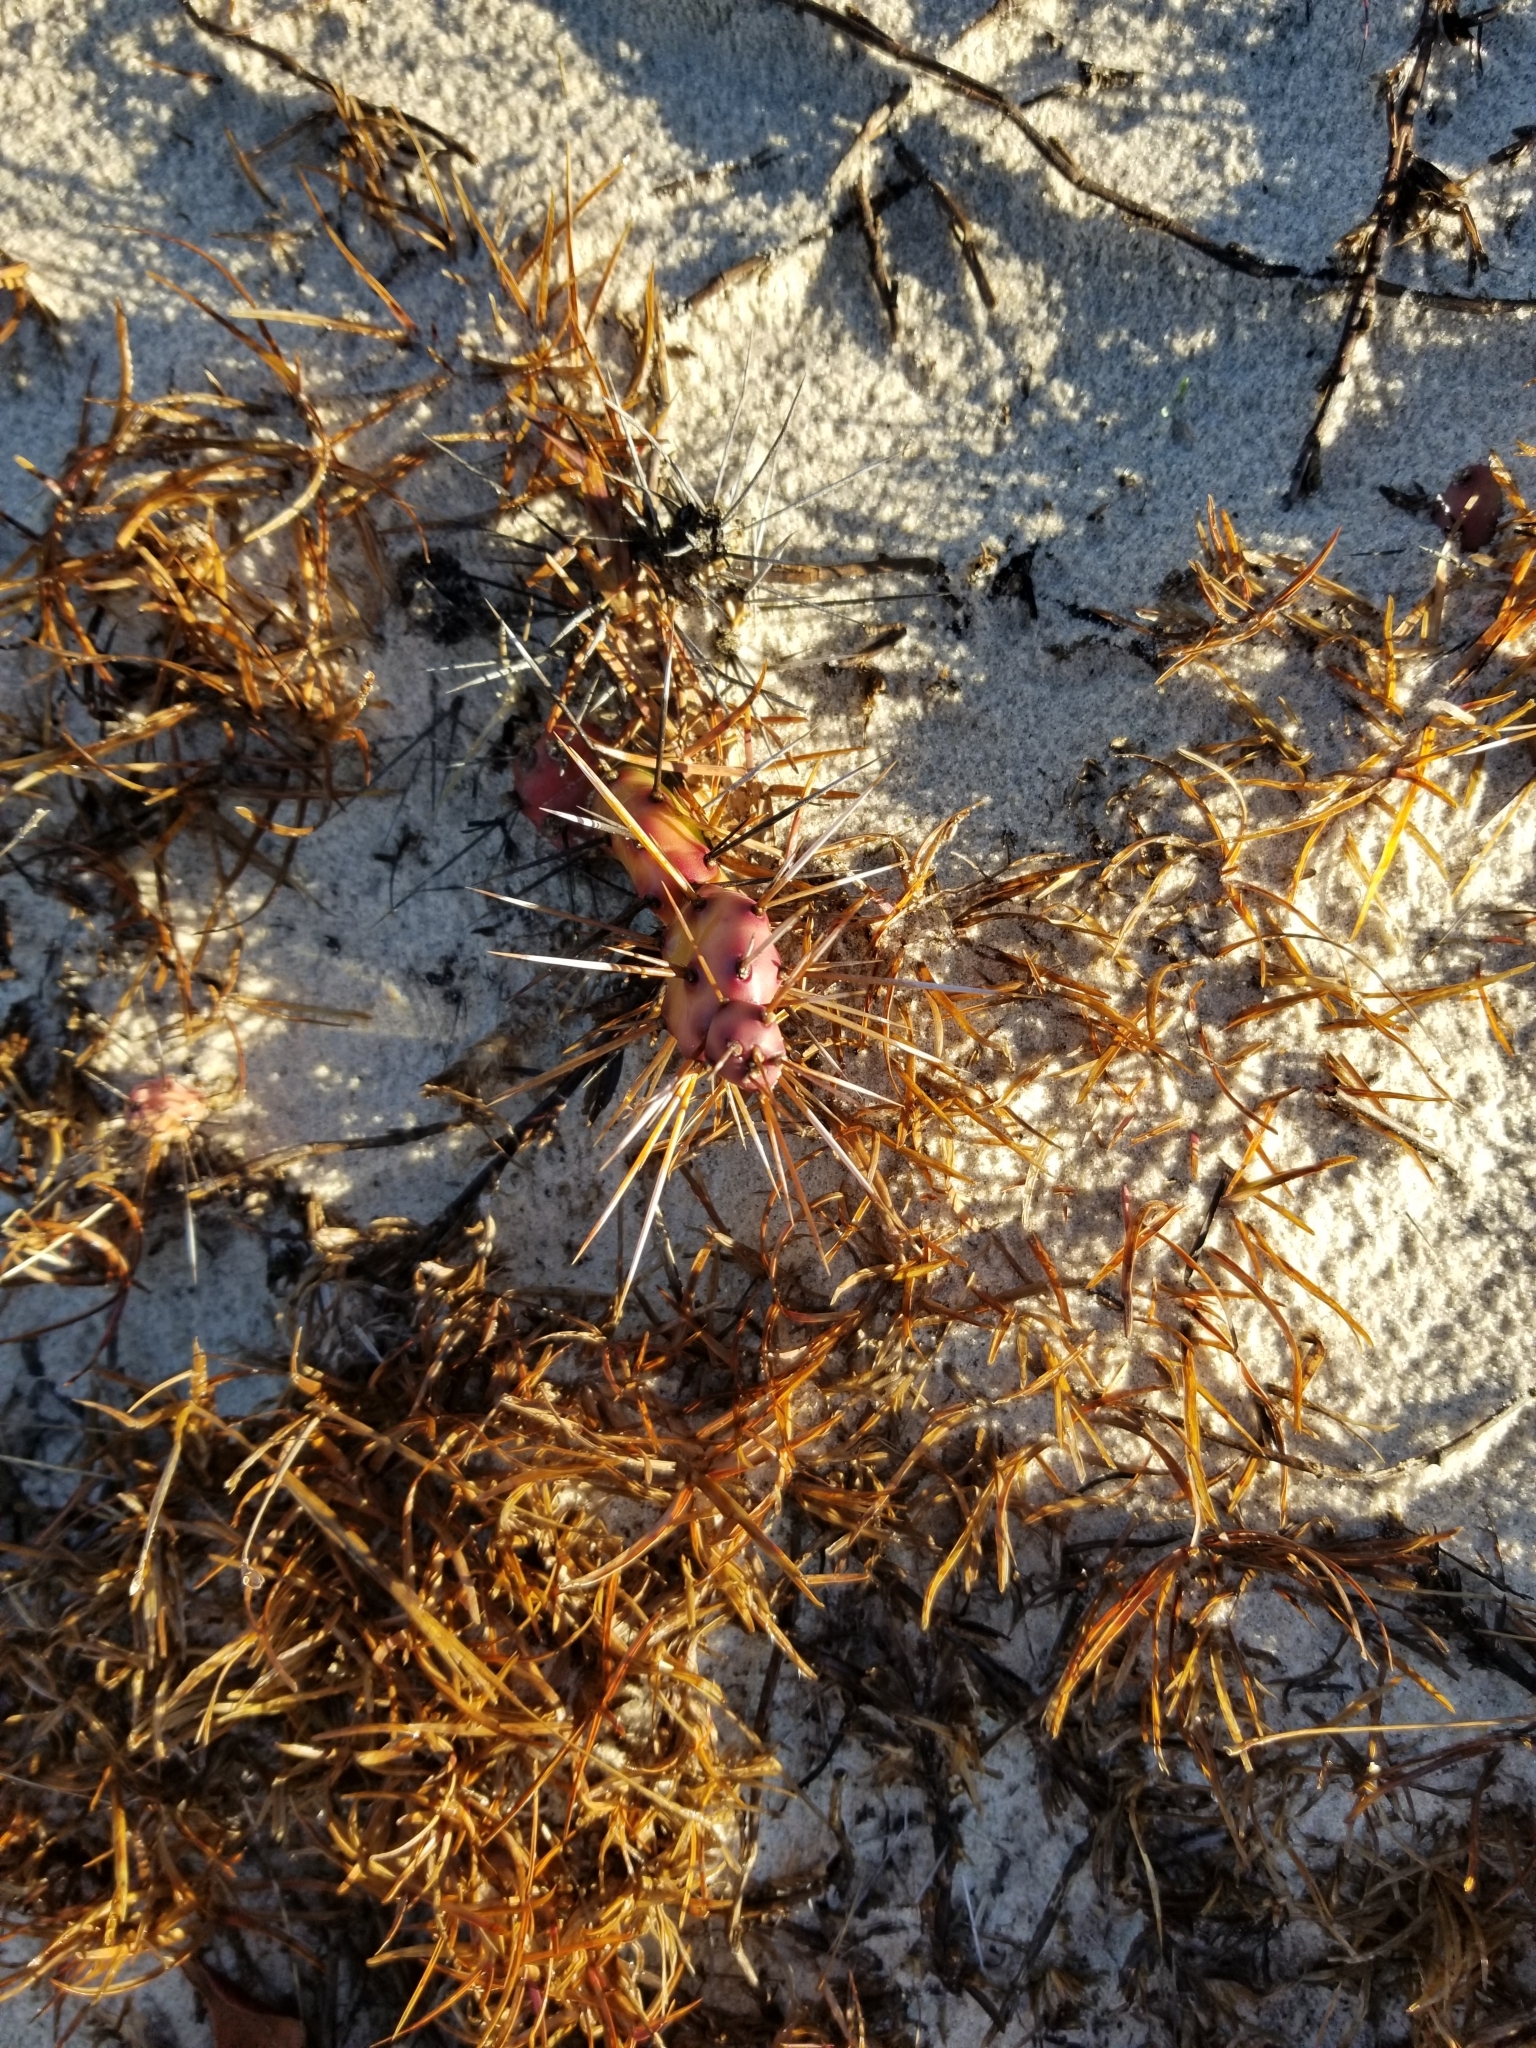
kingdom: Plantae
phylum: Tracheophyta
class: Magnoliopsida
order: Caryophyllales
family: Cactaceae
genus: Opuntia
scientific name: Opuntia drummondii
